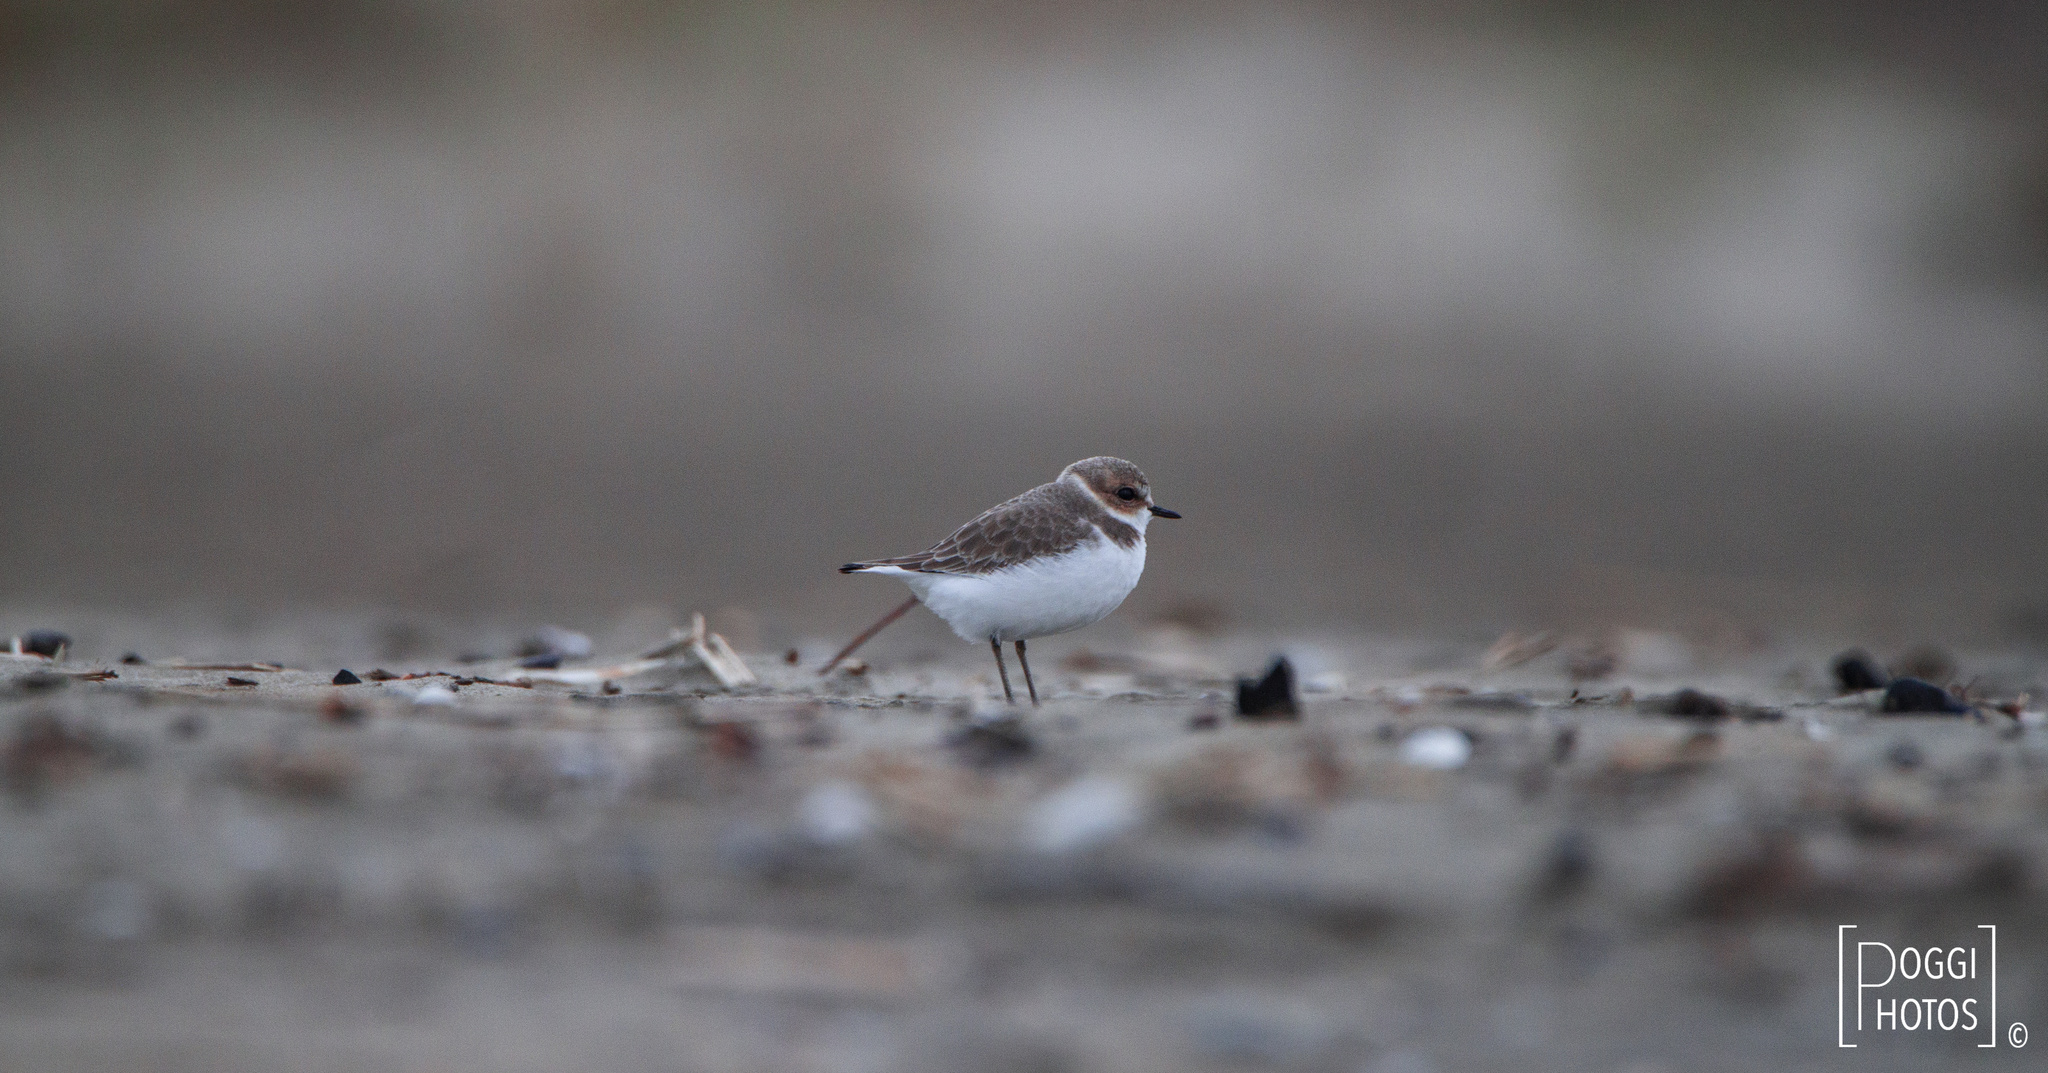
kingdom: Animalia
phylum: Chordata
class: Aves
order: Charadriiformes
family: Charadriidae
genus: Charadrius
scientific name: Charadrius alexandrinus
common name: Kentish plover
